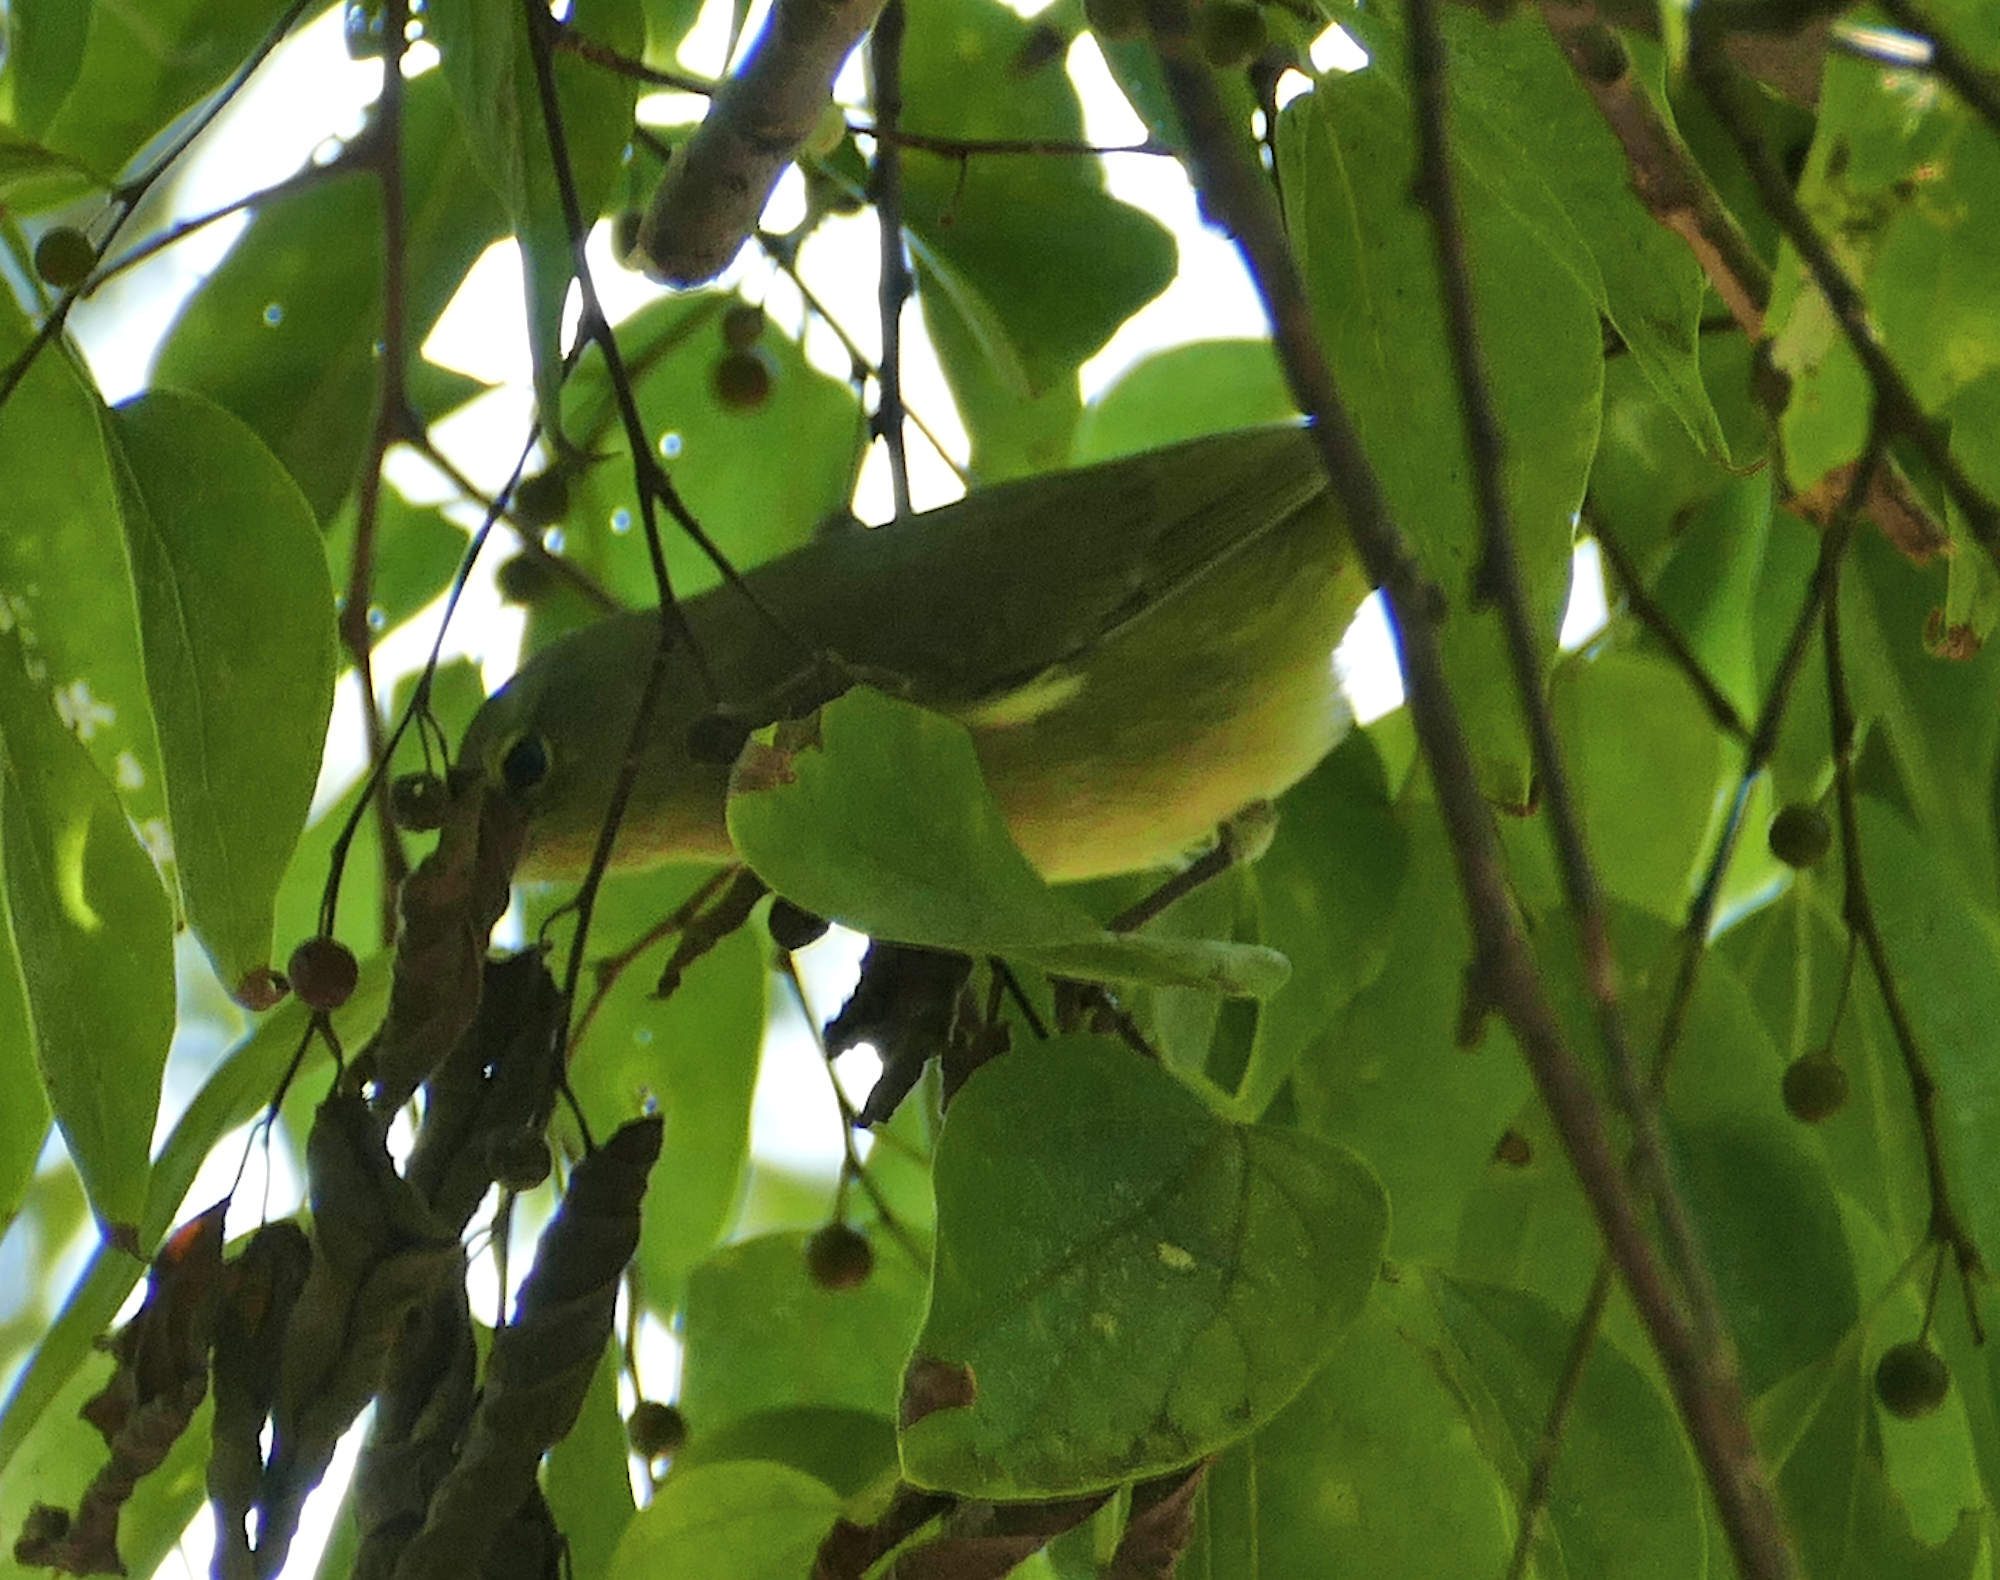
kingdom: Animalia
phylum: Chordata
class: Aves
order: Passeriformes
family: Parulidae
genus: Leiothlypis
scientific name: Leiothlypis celata
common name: Orange-crowned warbler
